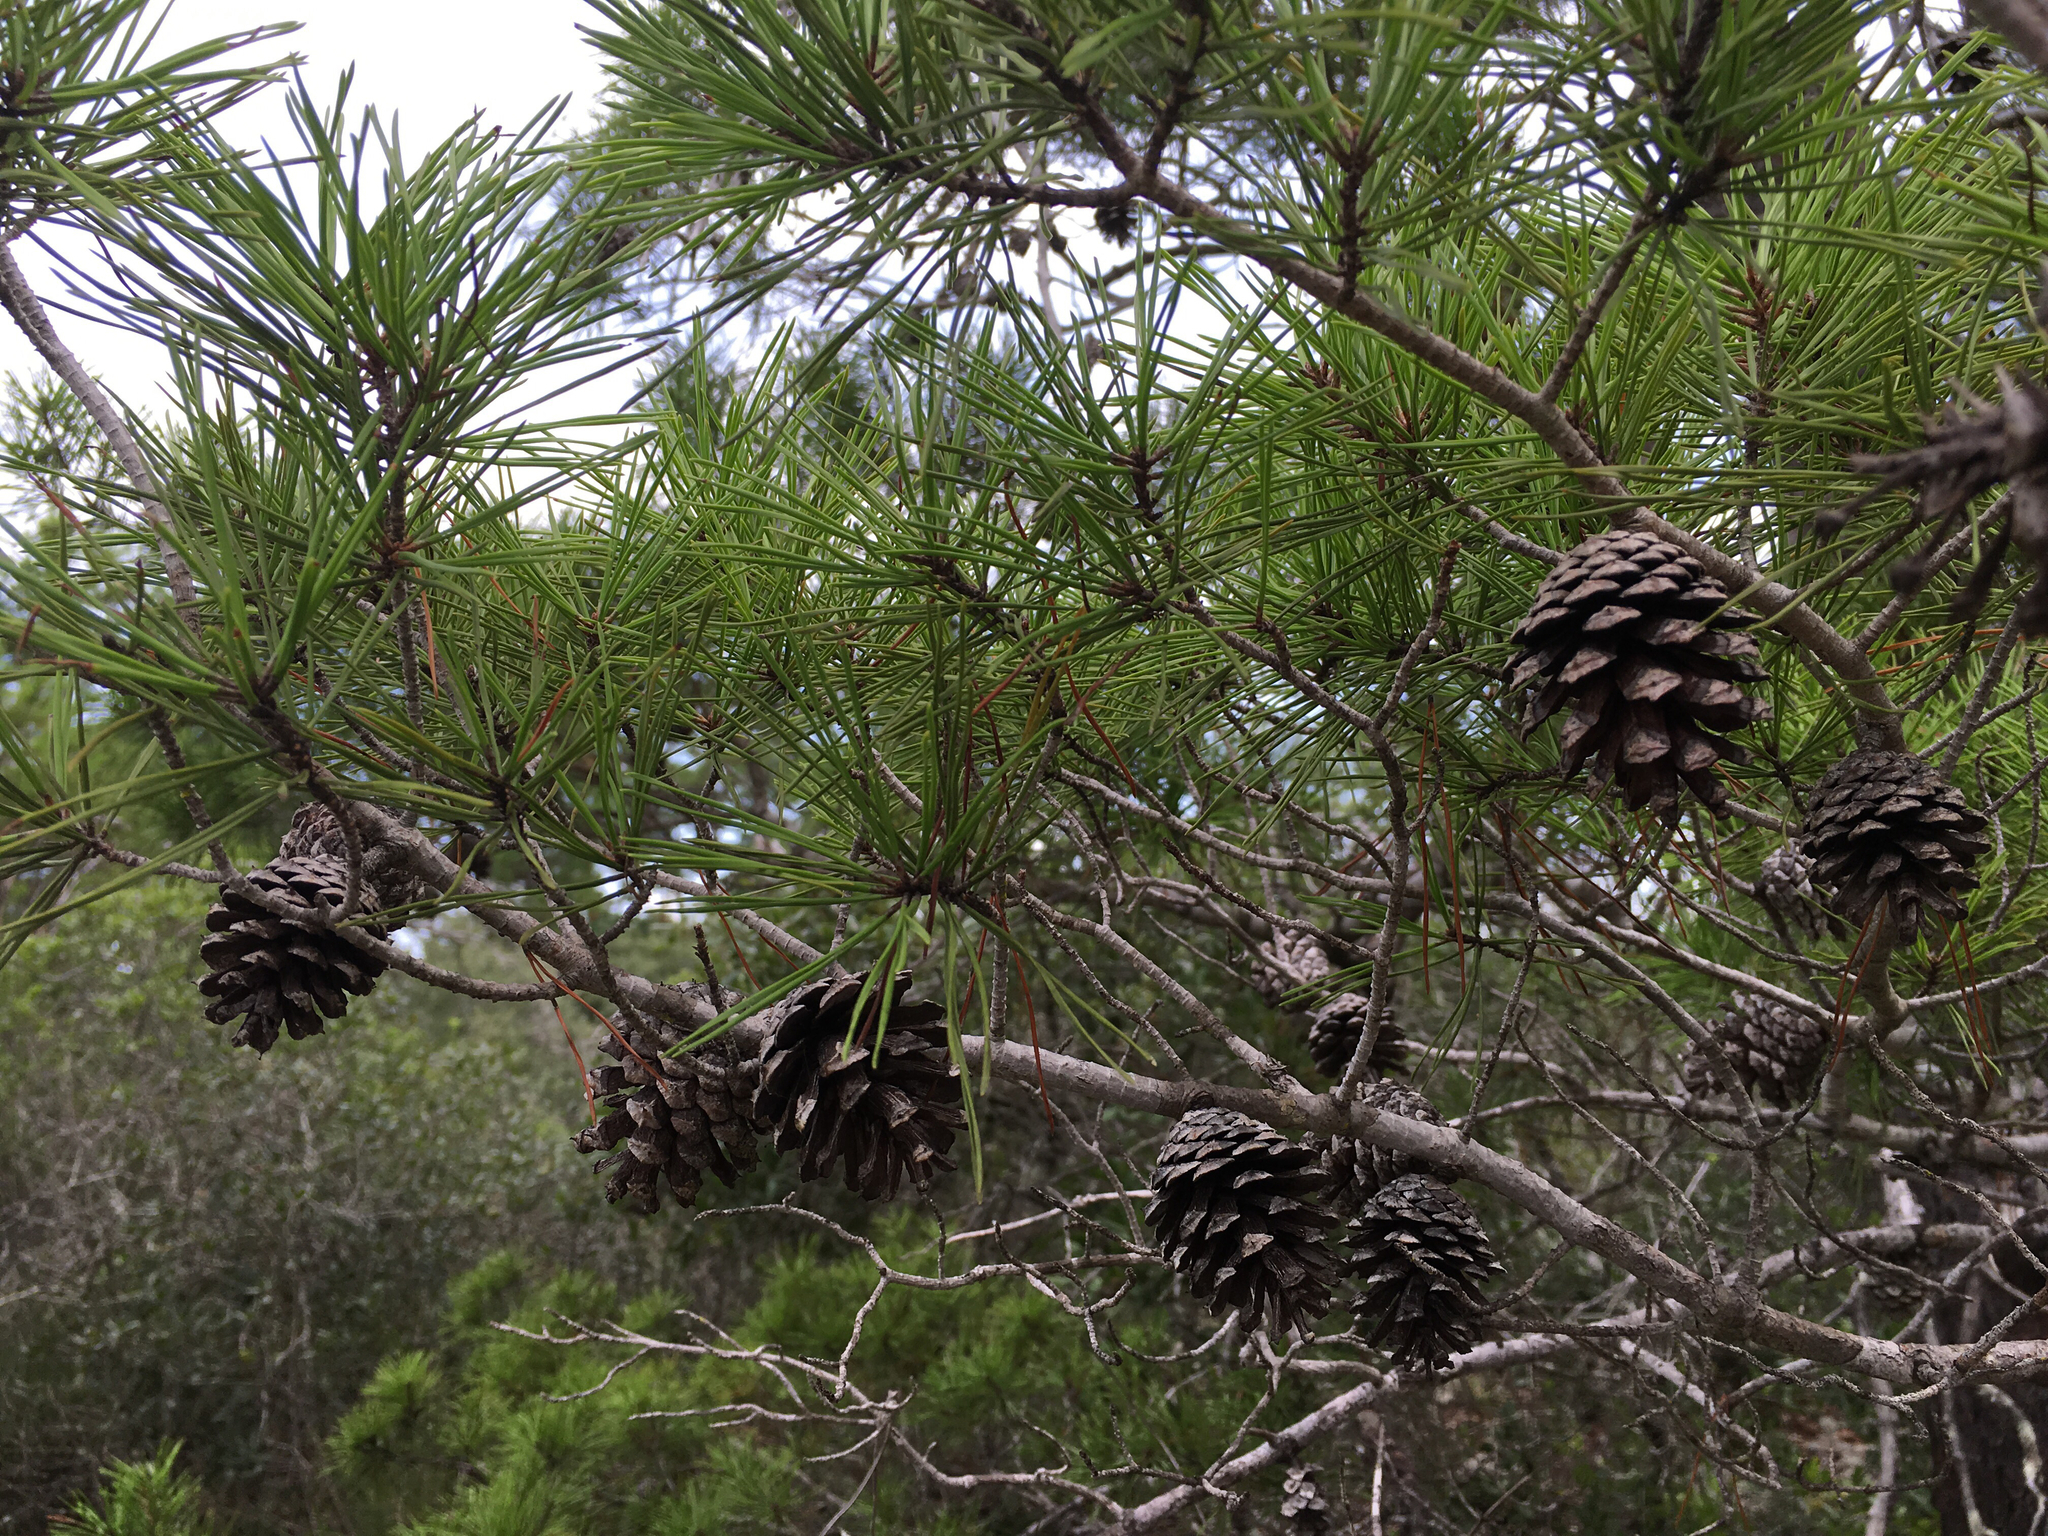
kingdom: Plantae
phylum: Tracheophyta
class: Pinopsida
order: Pinales
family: Pinaceae
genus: Pinus
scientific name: Pinus clausa
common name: Sand pine
